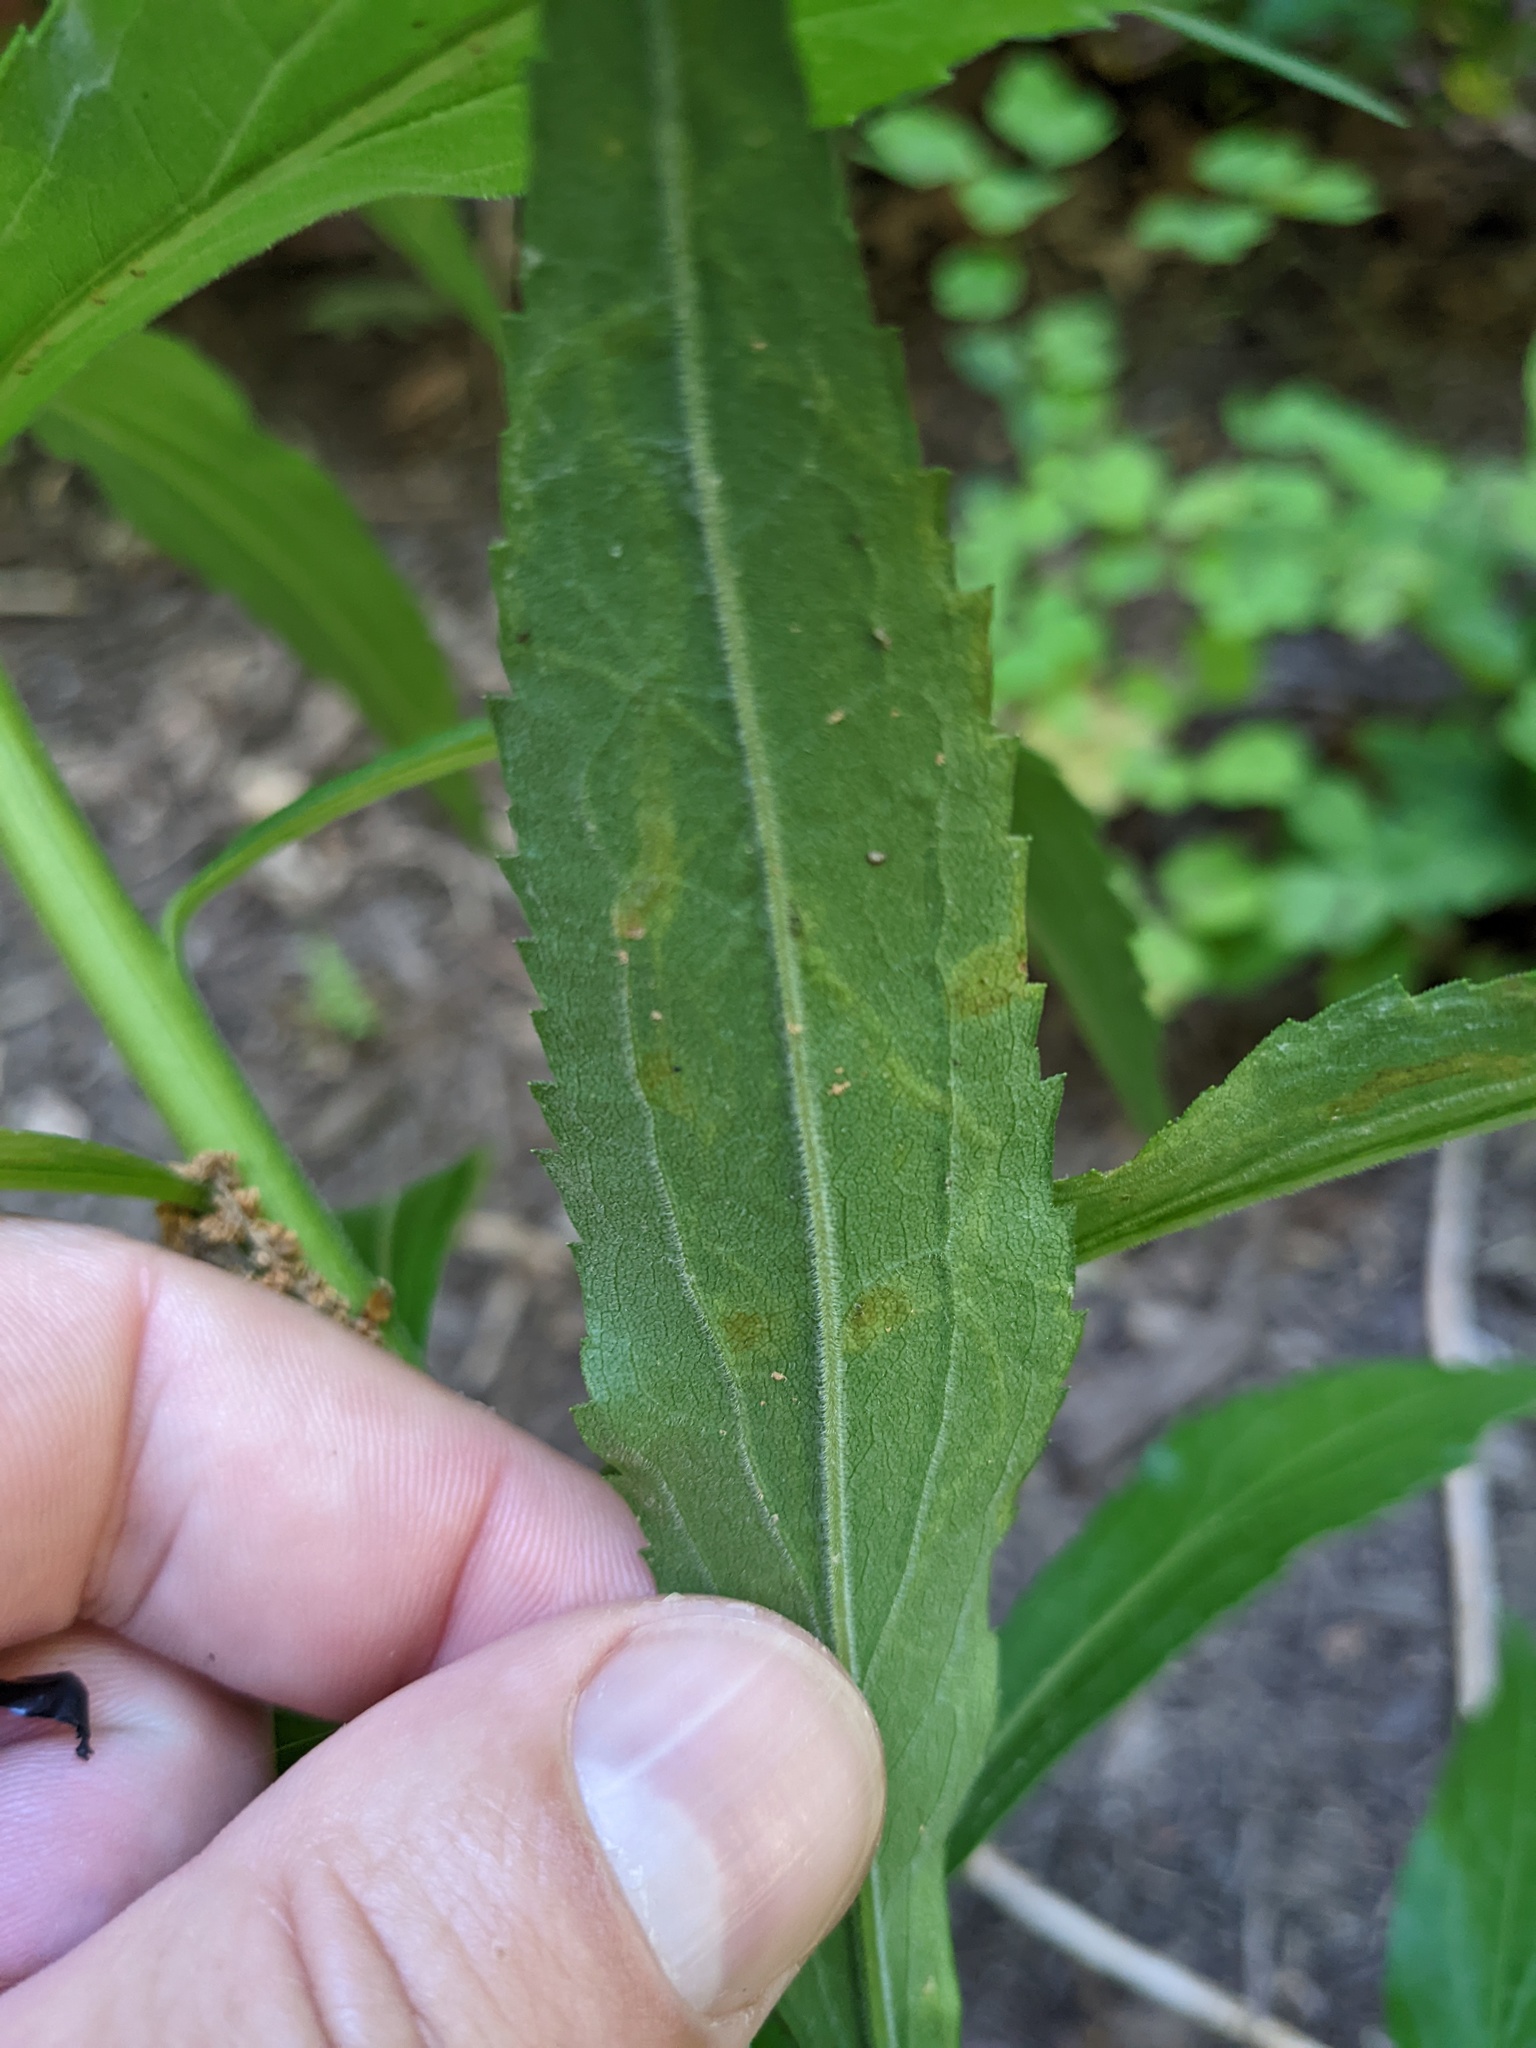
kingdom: Animalia
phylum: Arthropoda
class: Insecta
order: Diptera
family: Agromyzidae
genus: Liriomyza
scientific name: Liriomyza eupatorii
